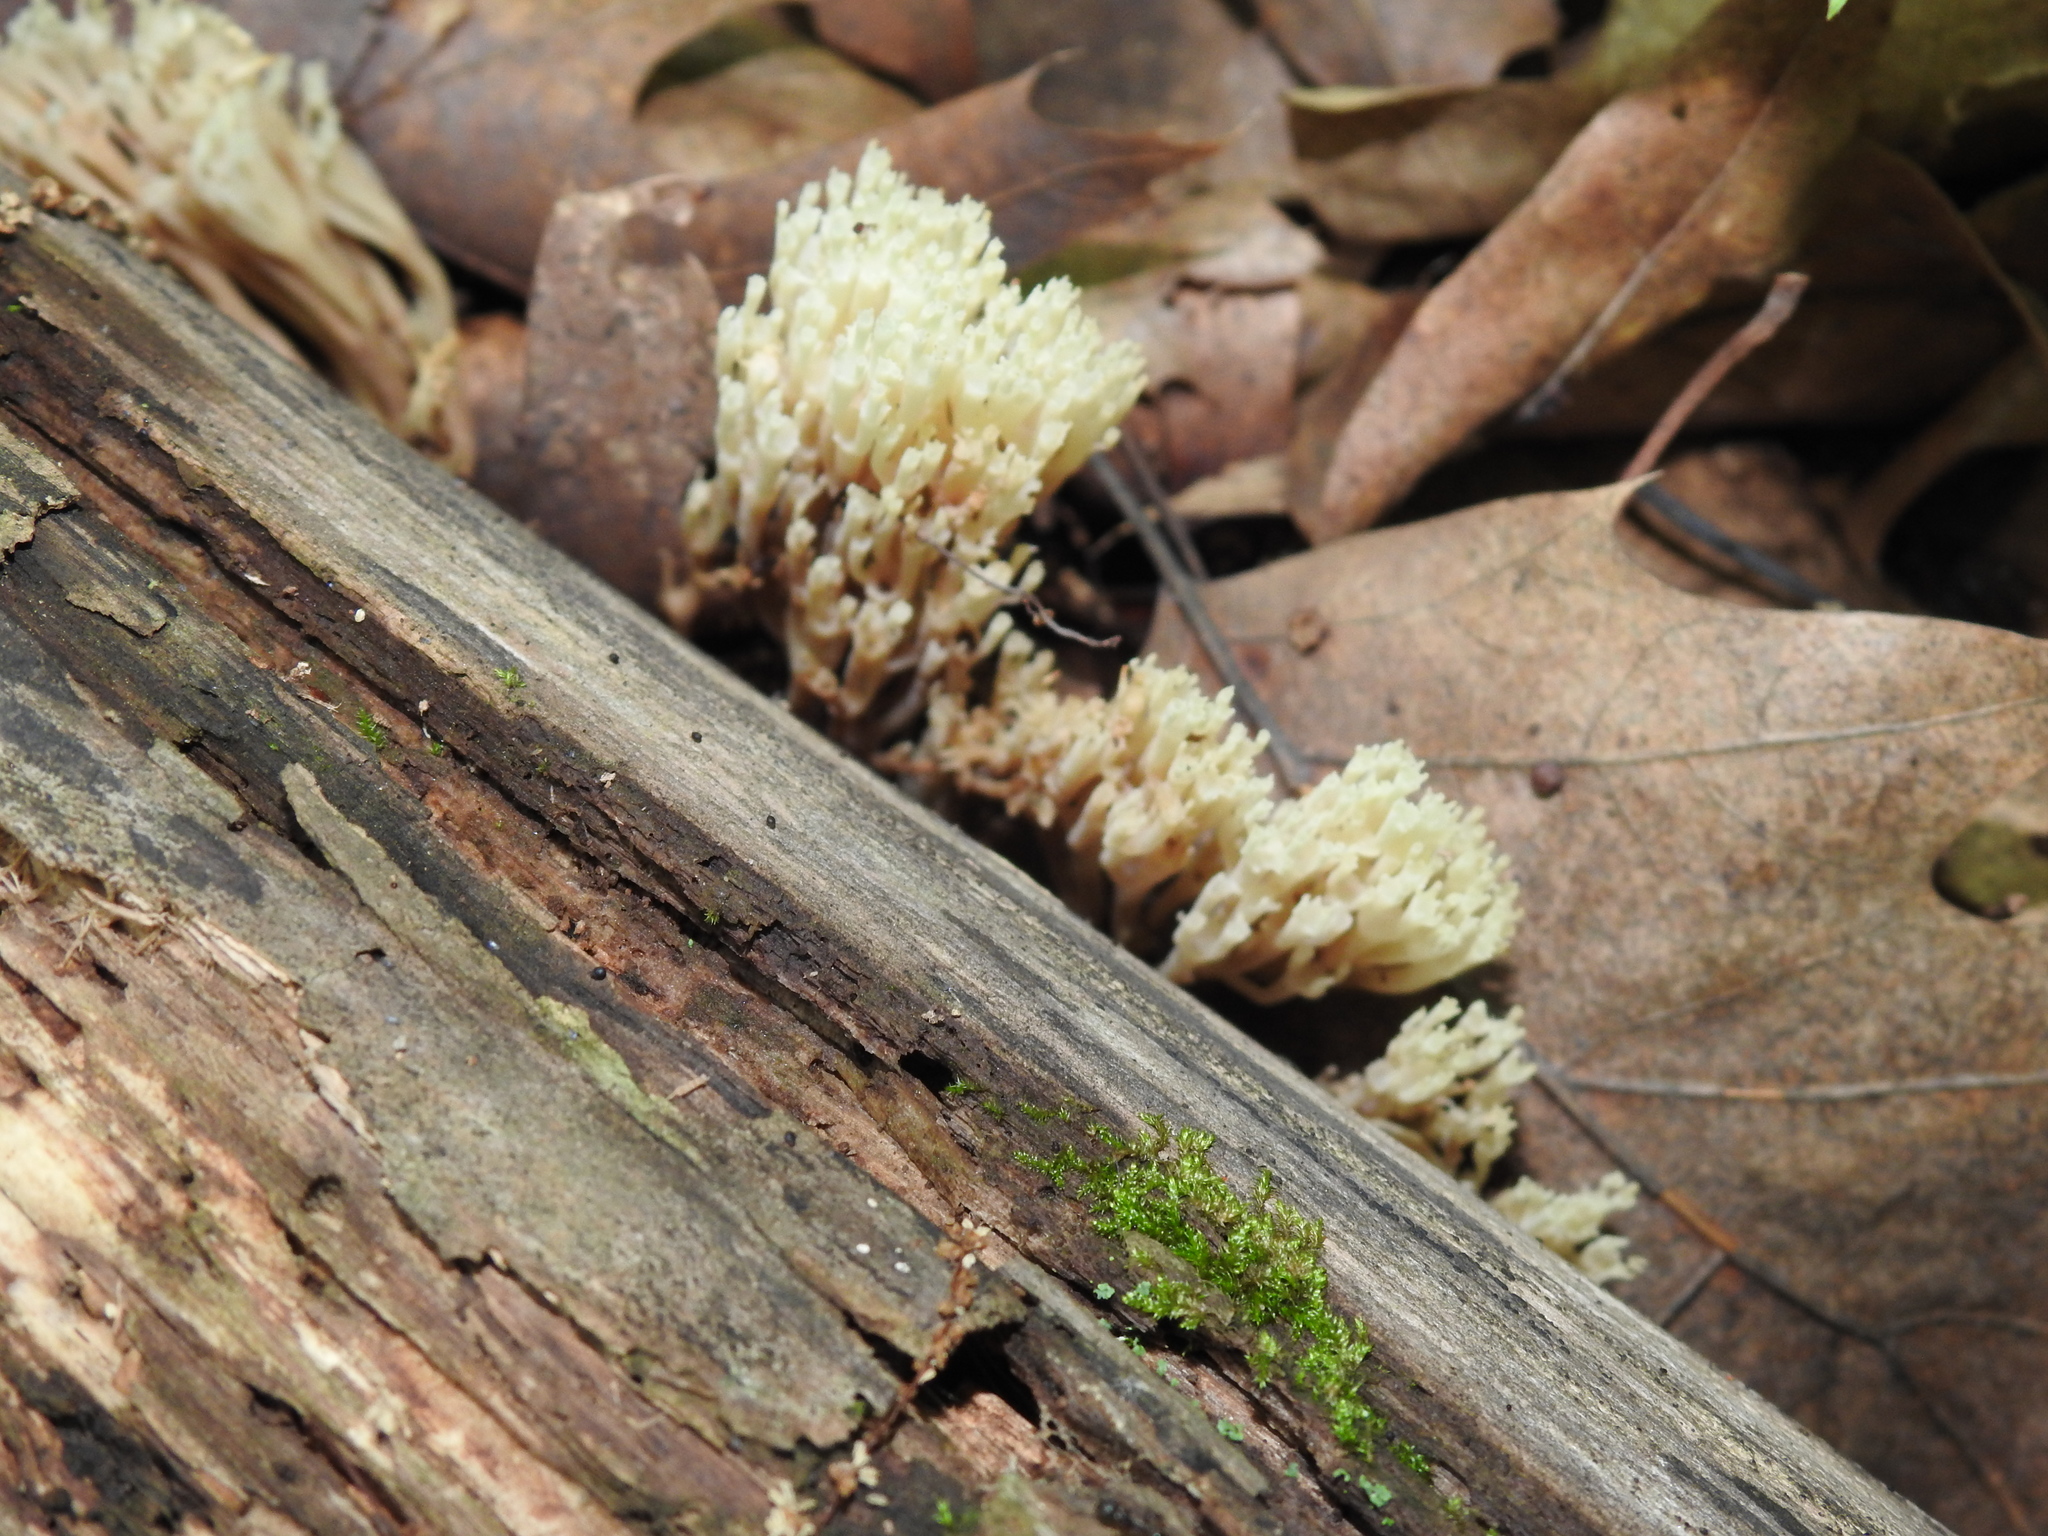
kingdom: Fungi
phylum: Basidiomycota
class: Agaricomycetes
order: Russulales
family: Auriscalpiaceae
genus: Artomyces
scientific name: Artomyces pyxidatus
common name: Crown-tipped coral fungus
